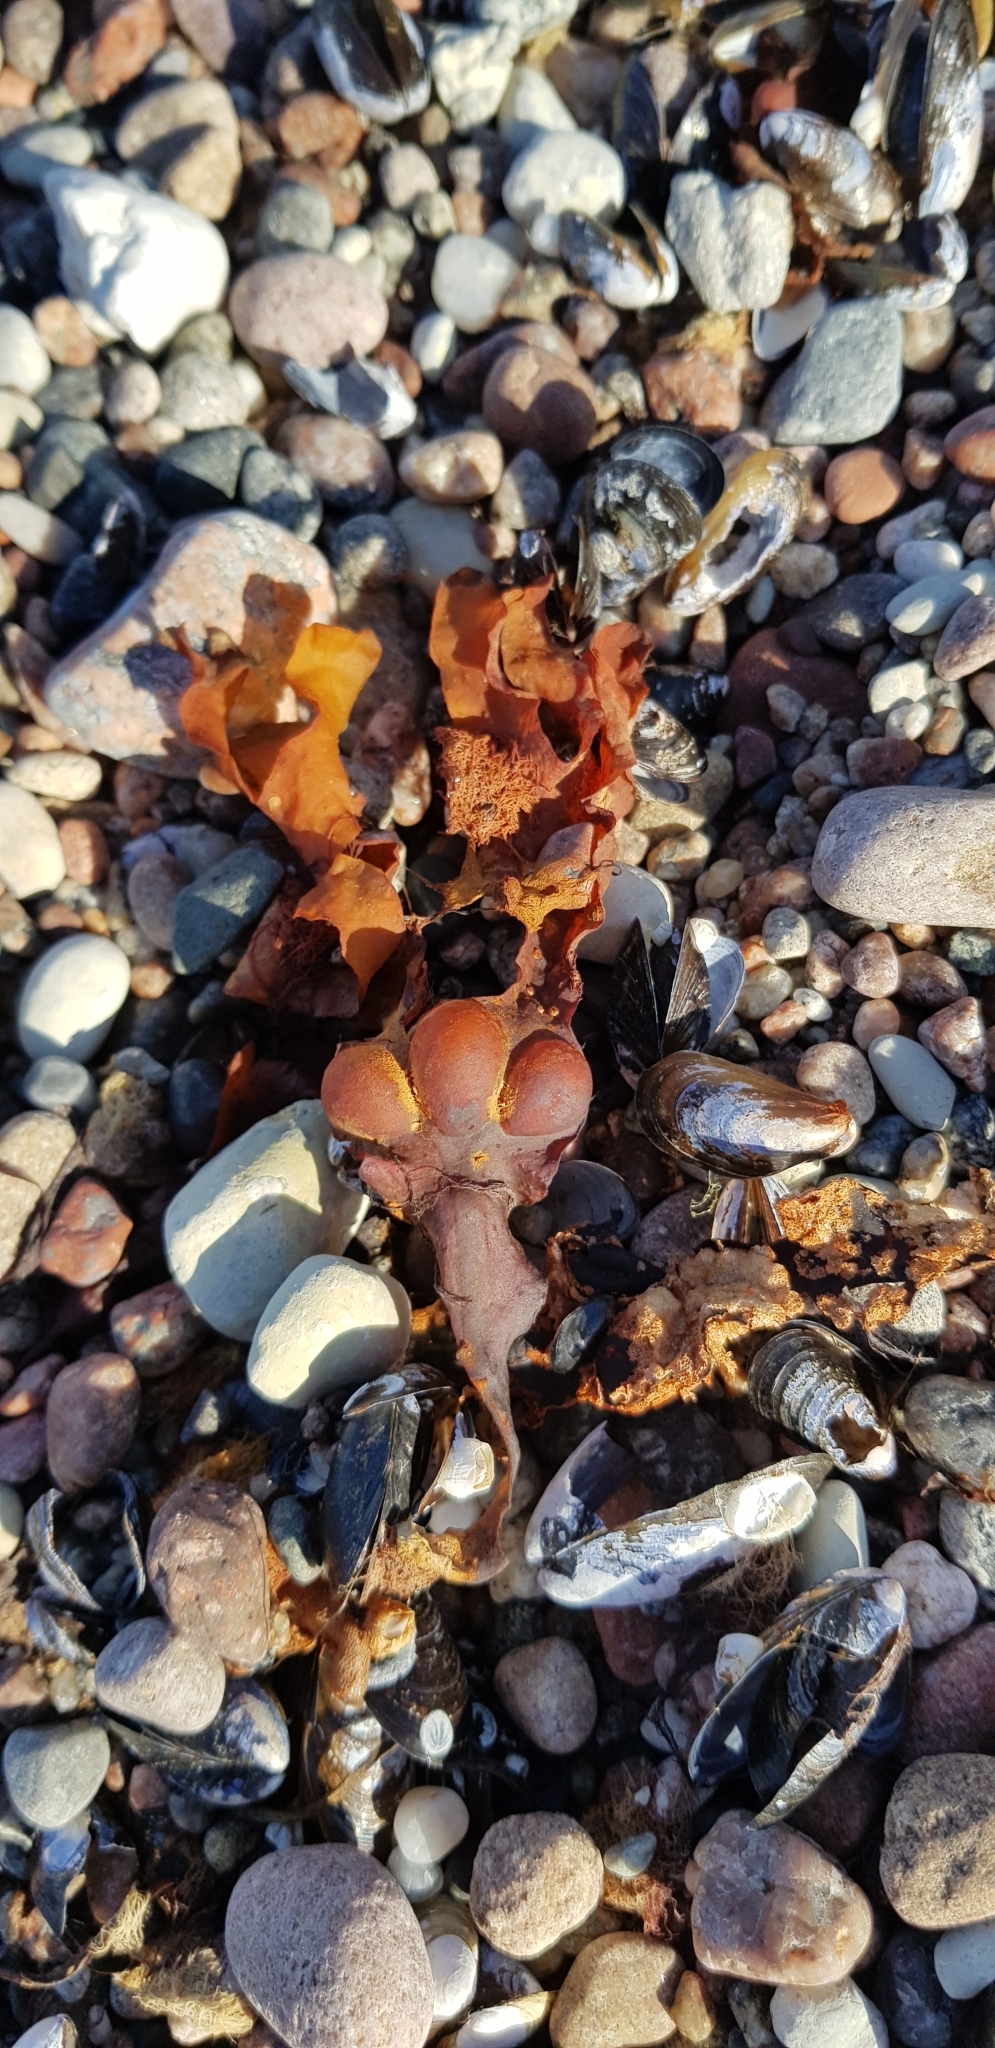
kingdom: Chromista
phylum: Ochrophyta
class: Phaeophyceae
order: Fucales
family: Fucaceae
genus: Fucus
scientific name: Fucus vesiculosus
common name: Bladder wrack
